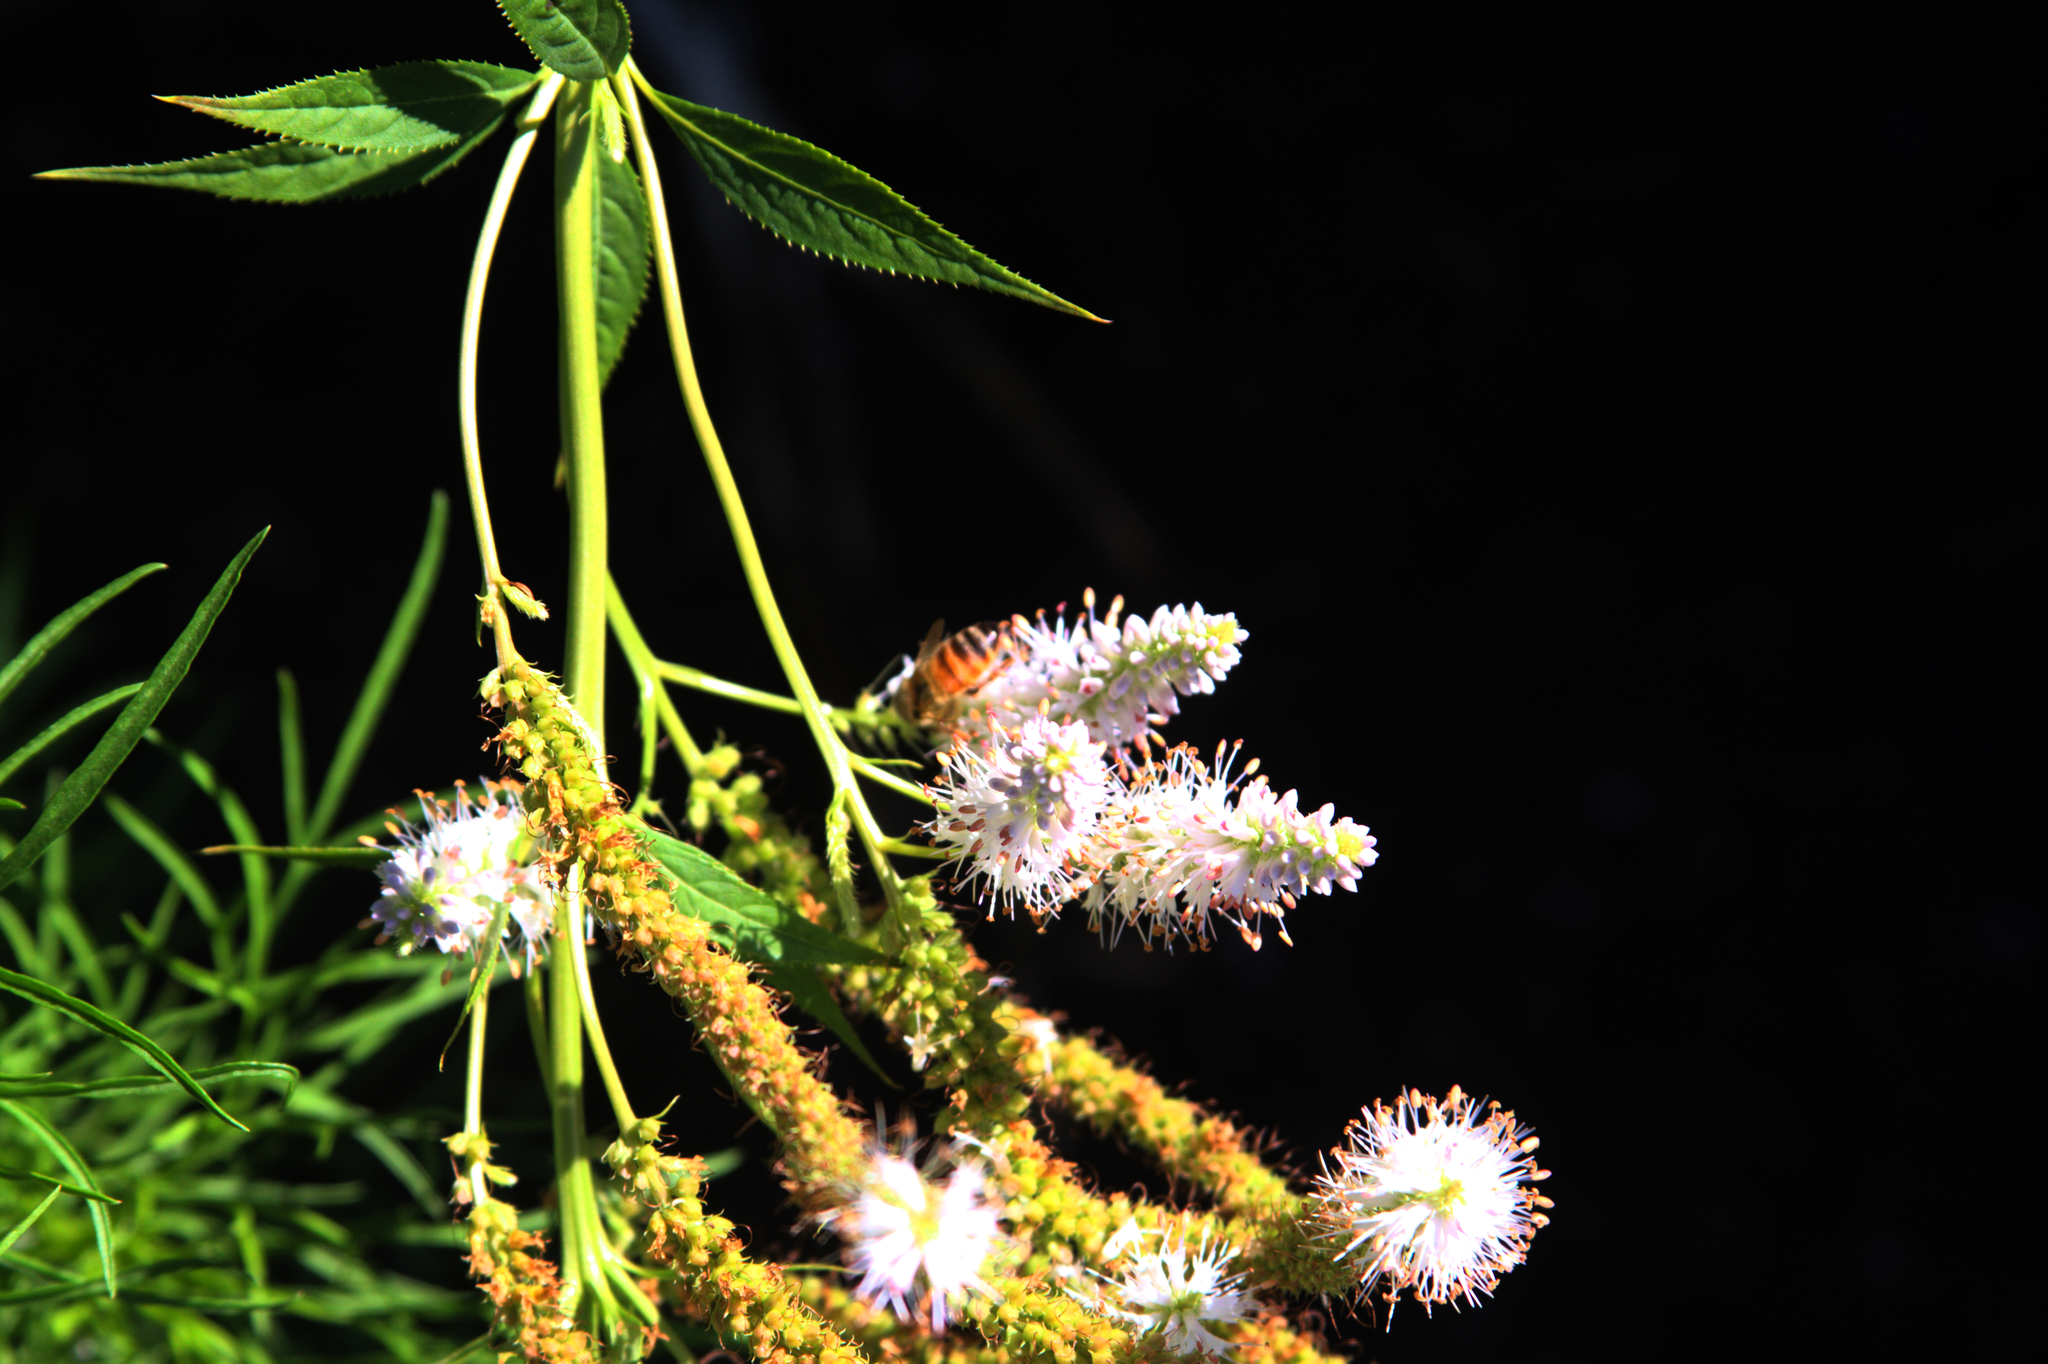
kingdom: Animalia
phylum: Arthropoda
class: Insecta
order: Hymenoptera
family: Apidae
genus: Apis
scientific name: Apis mellifera
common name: Honey bee
